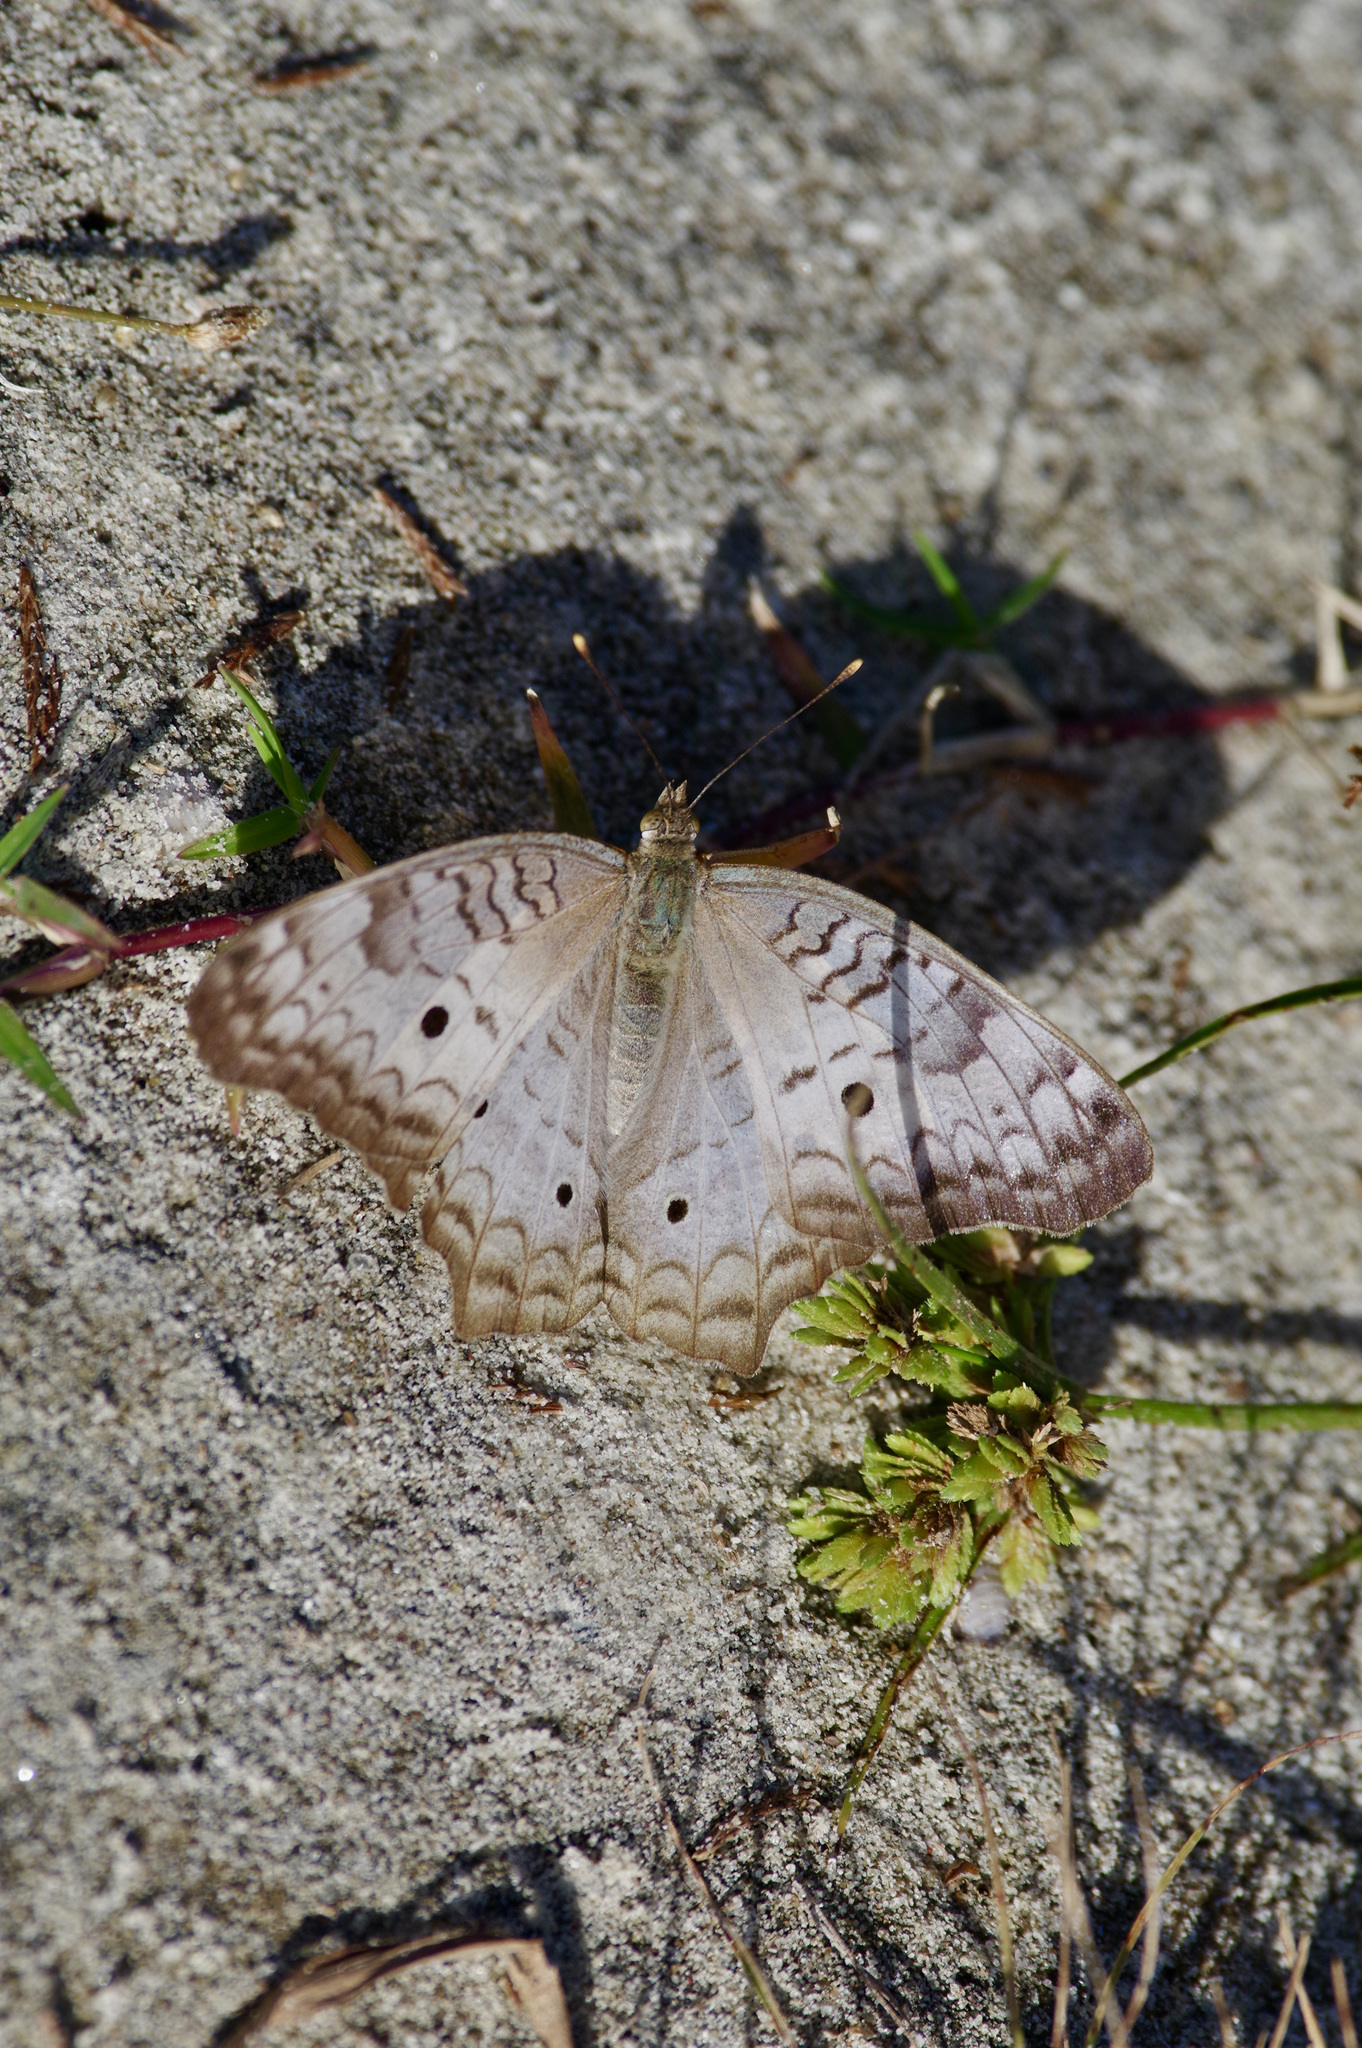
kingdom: Animalia
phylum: Arthropoda
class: Insecta
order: Lepidoptera
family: Nymphalidae
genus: Anartia
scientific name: Anartia jatrophae
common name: White peacock
